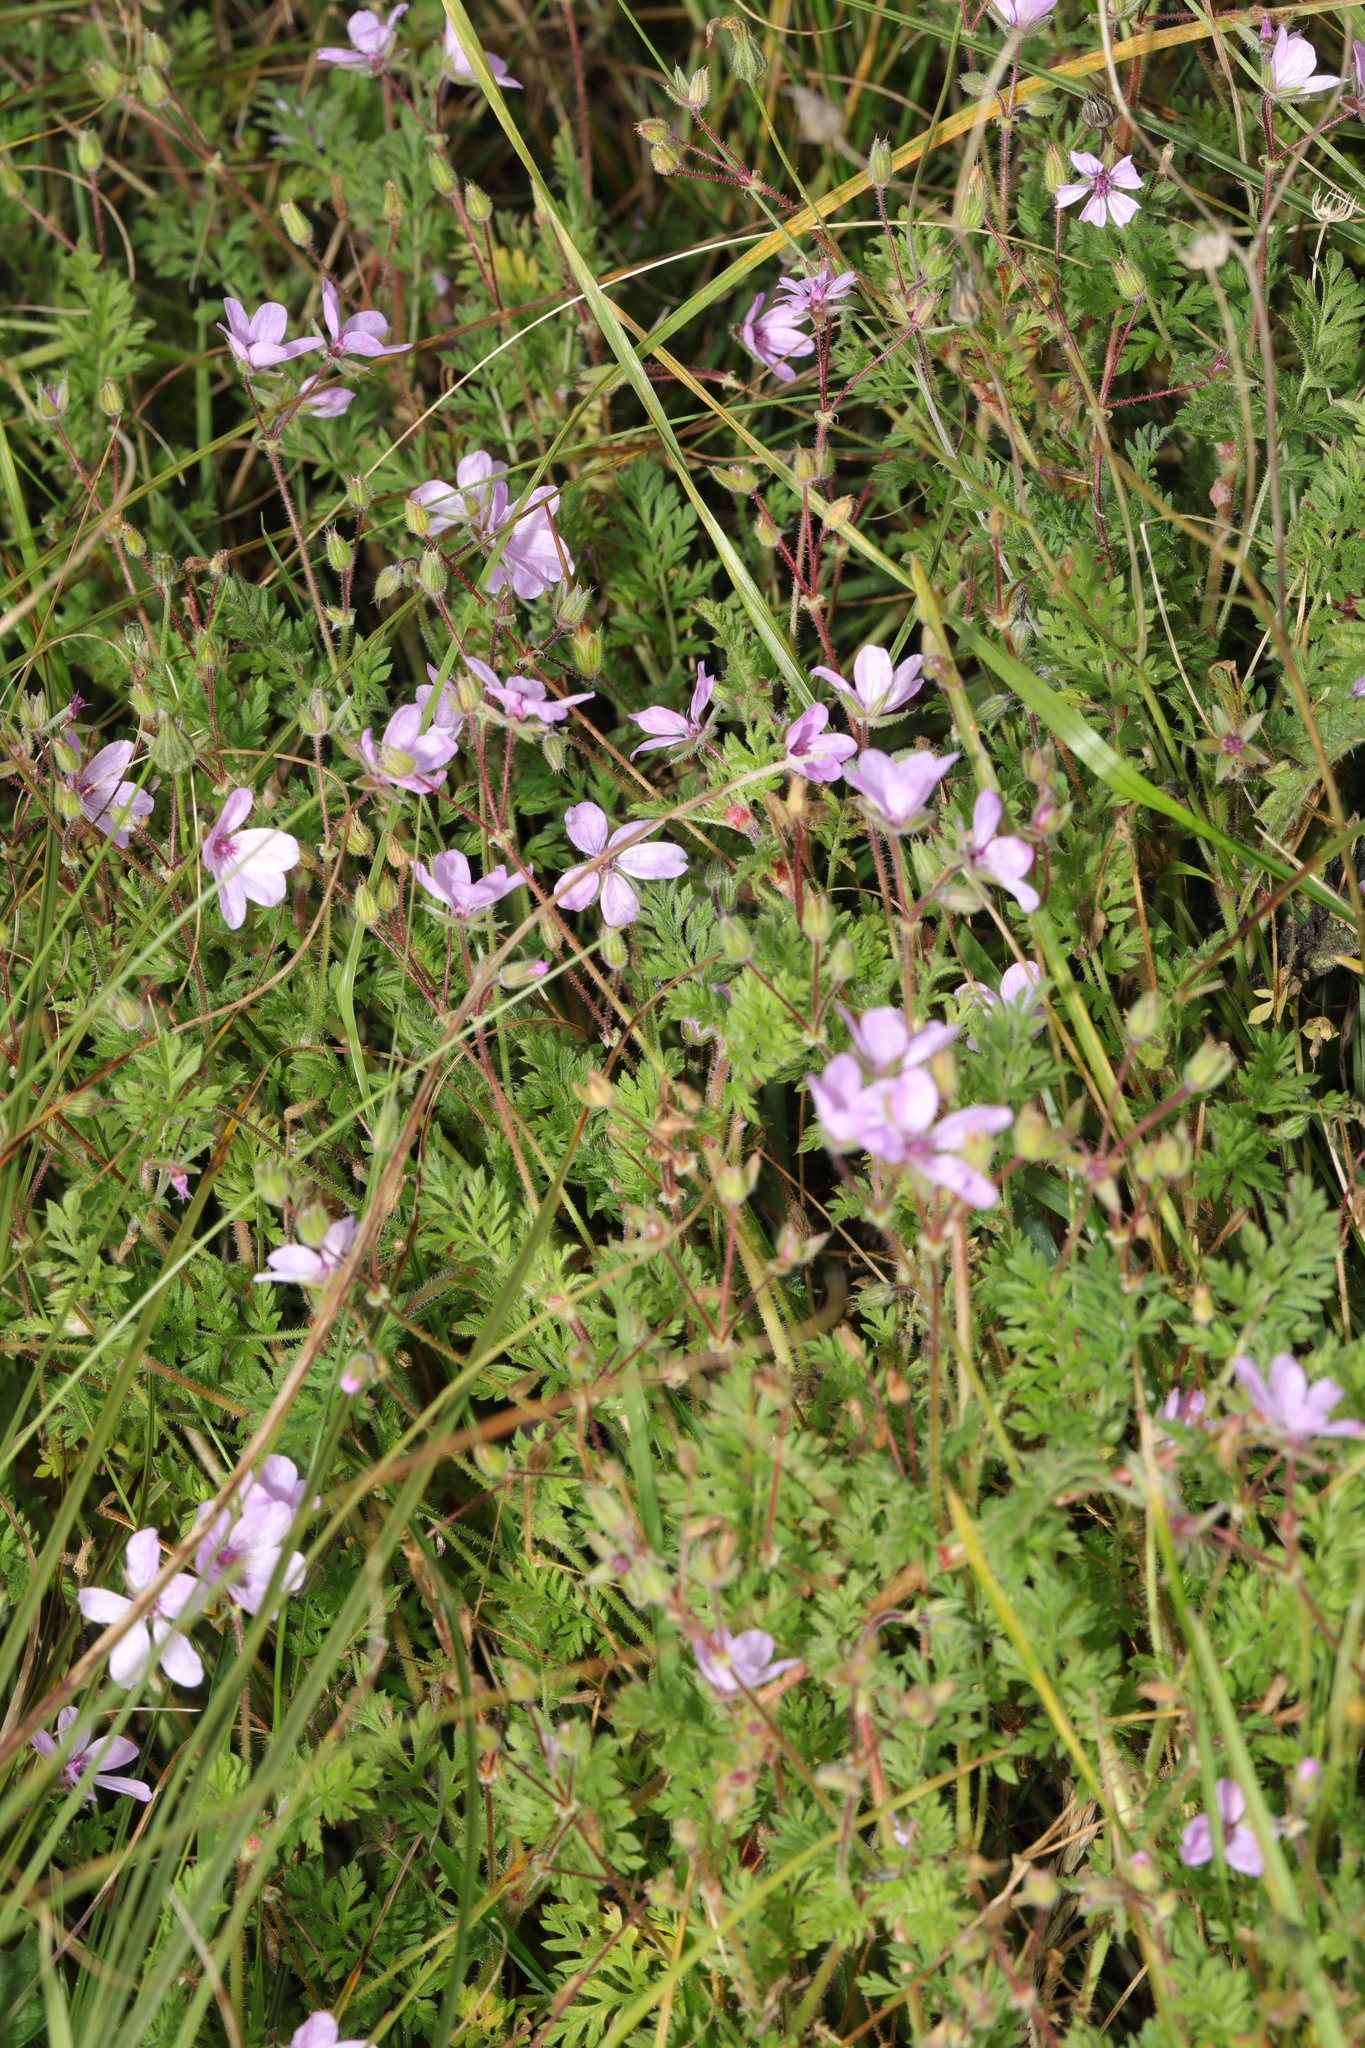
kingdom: Plantae
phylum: Tracheophyta
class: Magnoliopsida
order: Geraniales
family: Geraniaceae
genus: Erodium
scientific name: Erodium cicutarium
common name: Common stork's-bill
